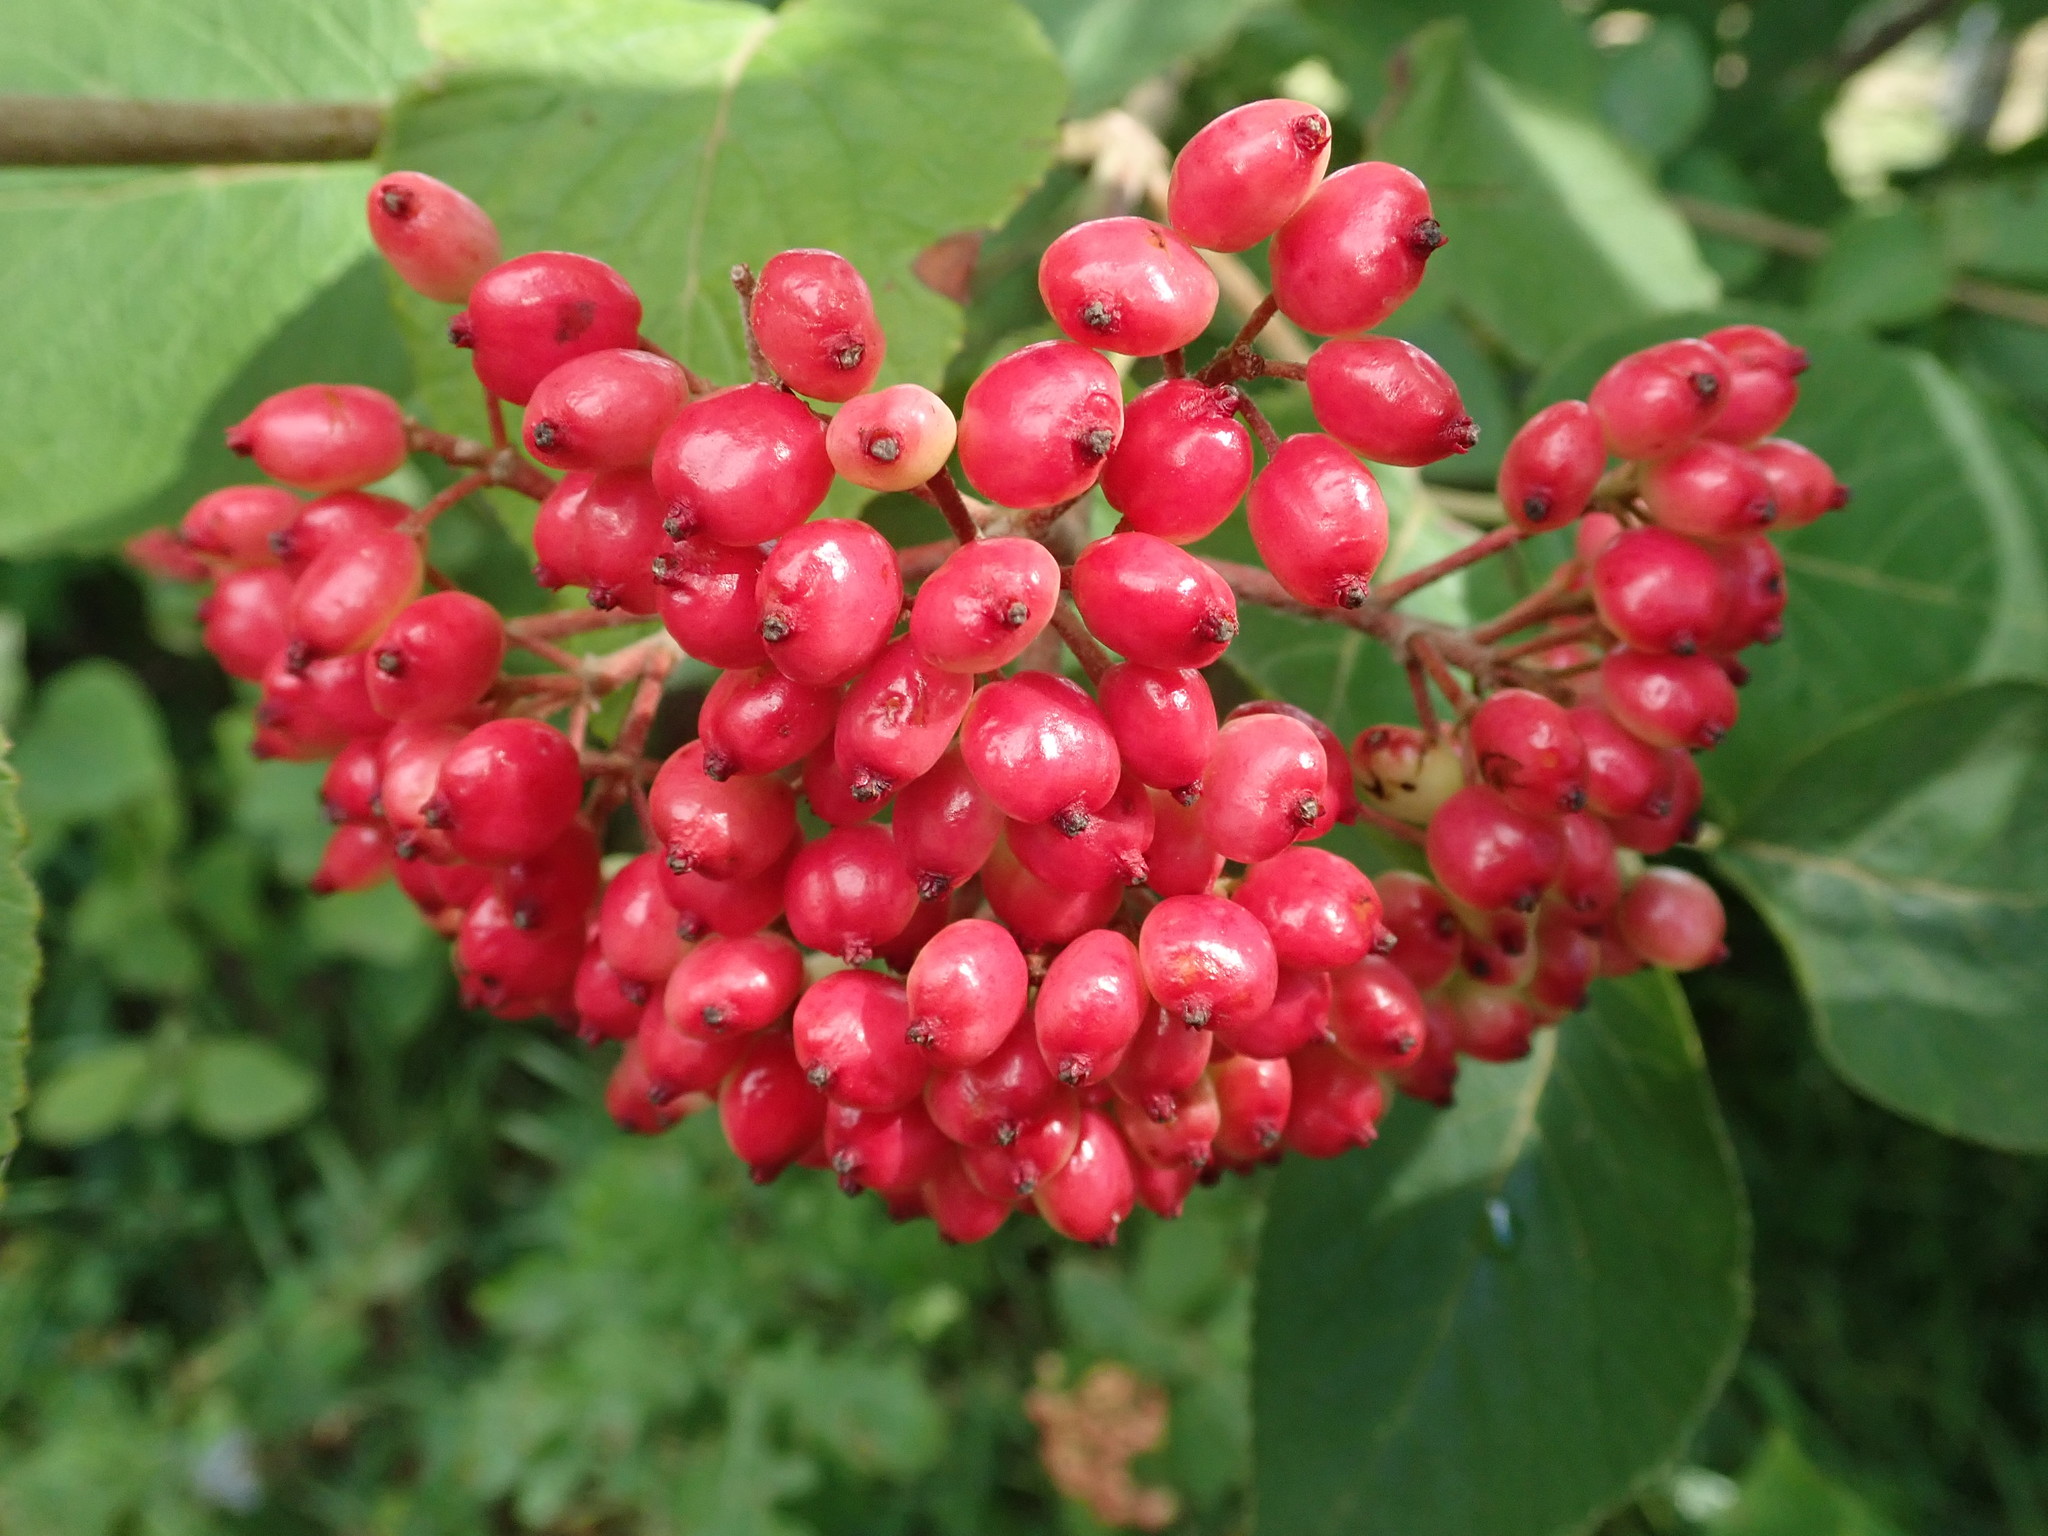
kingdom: Plantae
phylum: Tracheophyta
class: Magnoliopsida
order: Dipsacales
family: Viburnaceae
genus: Viburnum
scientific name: Viburnum lantana
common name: Wayfaring tree
